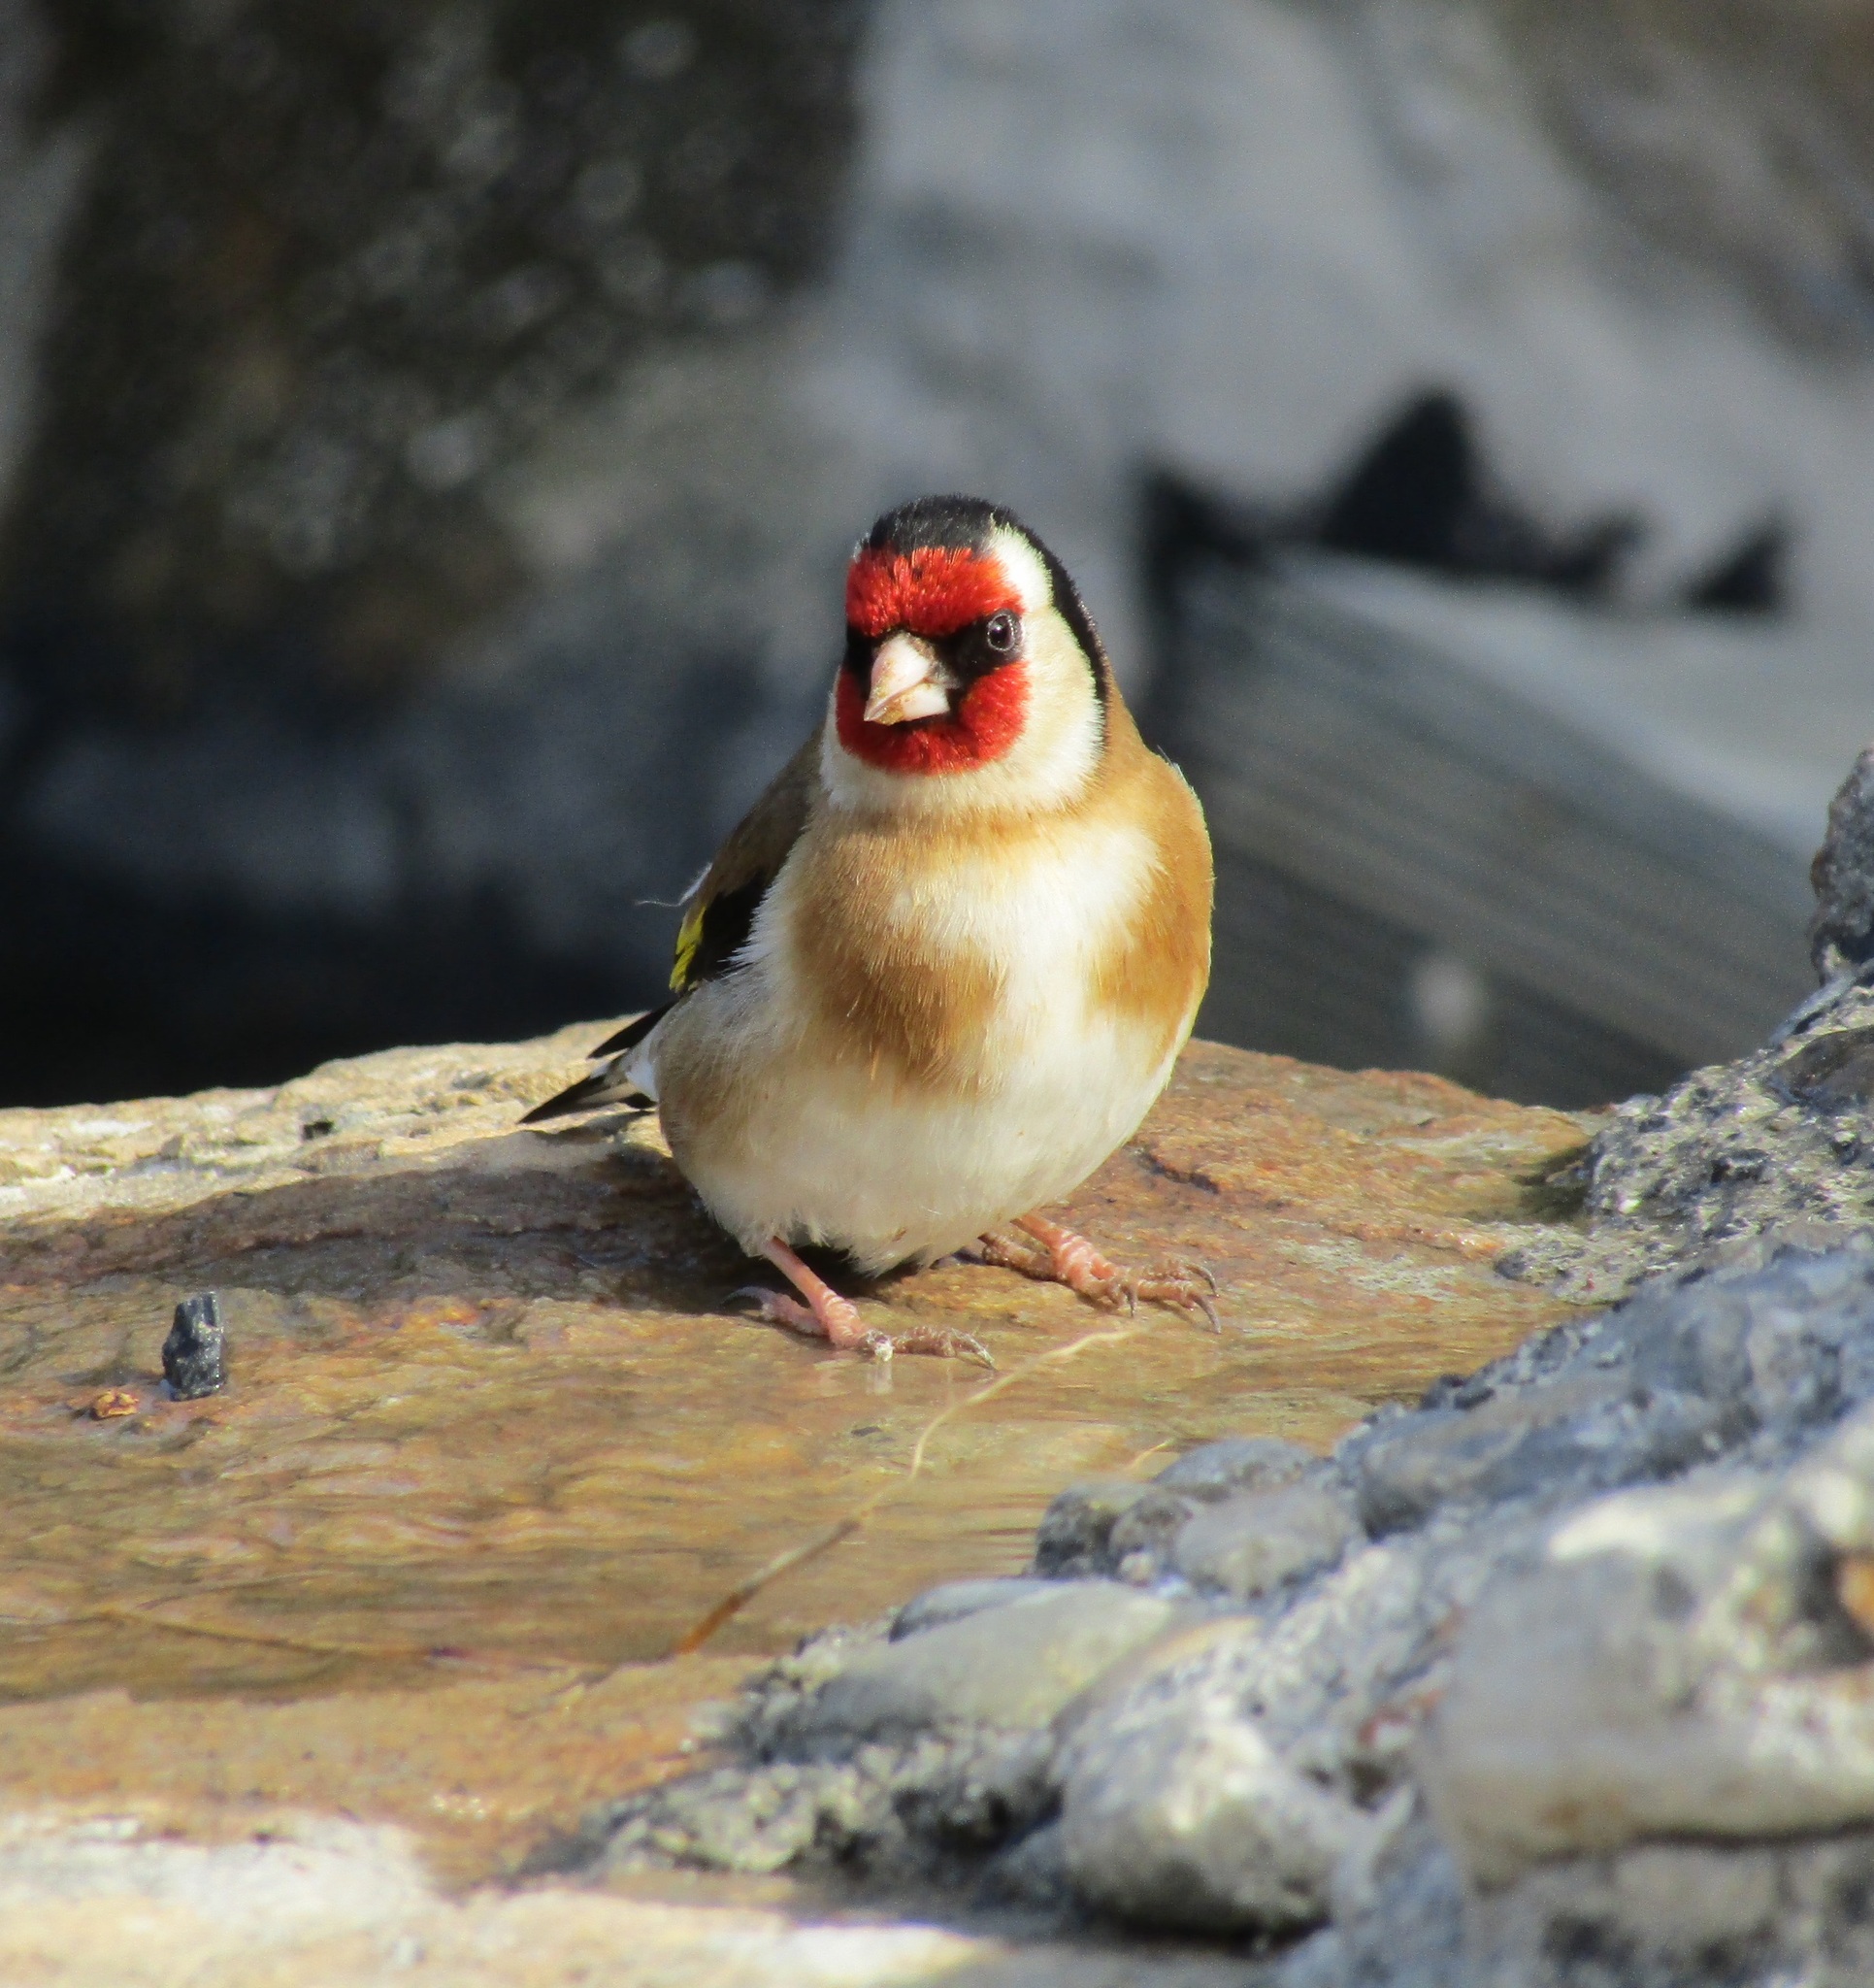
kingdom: Animalia
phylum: Chordata
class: Aves
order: Passeriformes
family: Fringillidae
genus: Carduelis
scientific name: Carduelis carduelis
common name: European goldfinch
